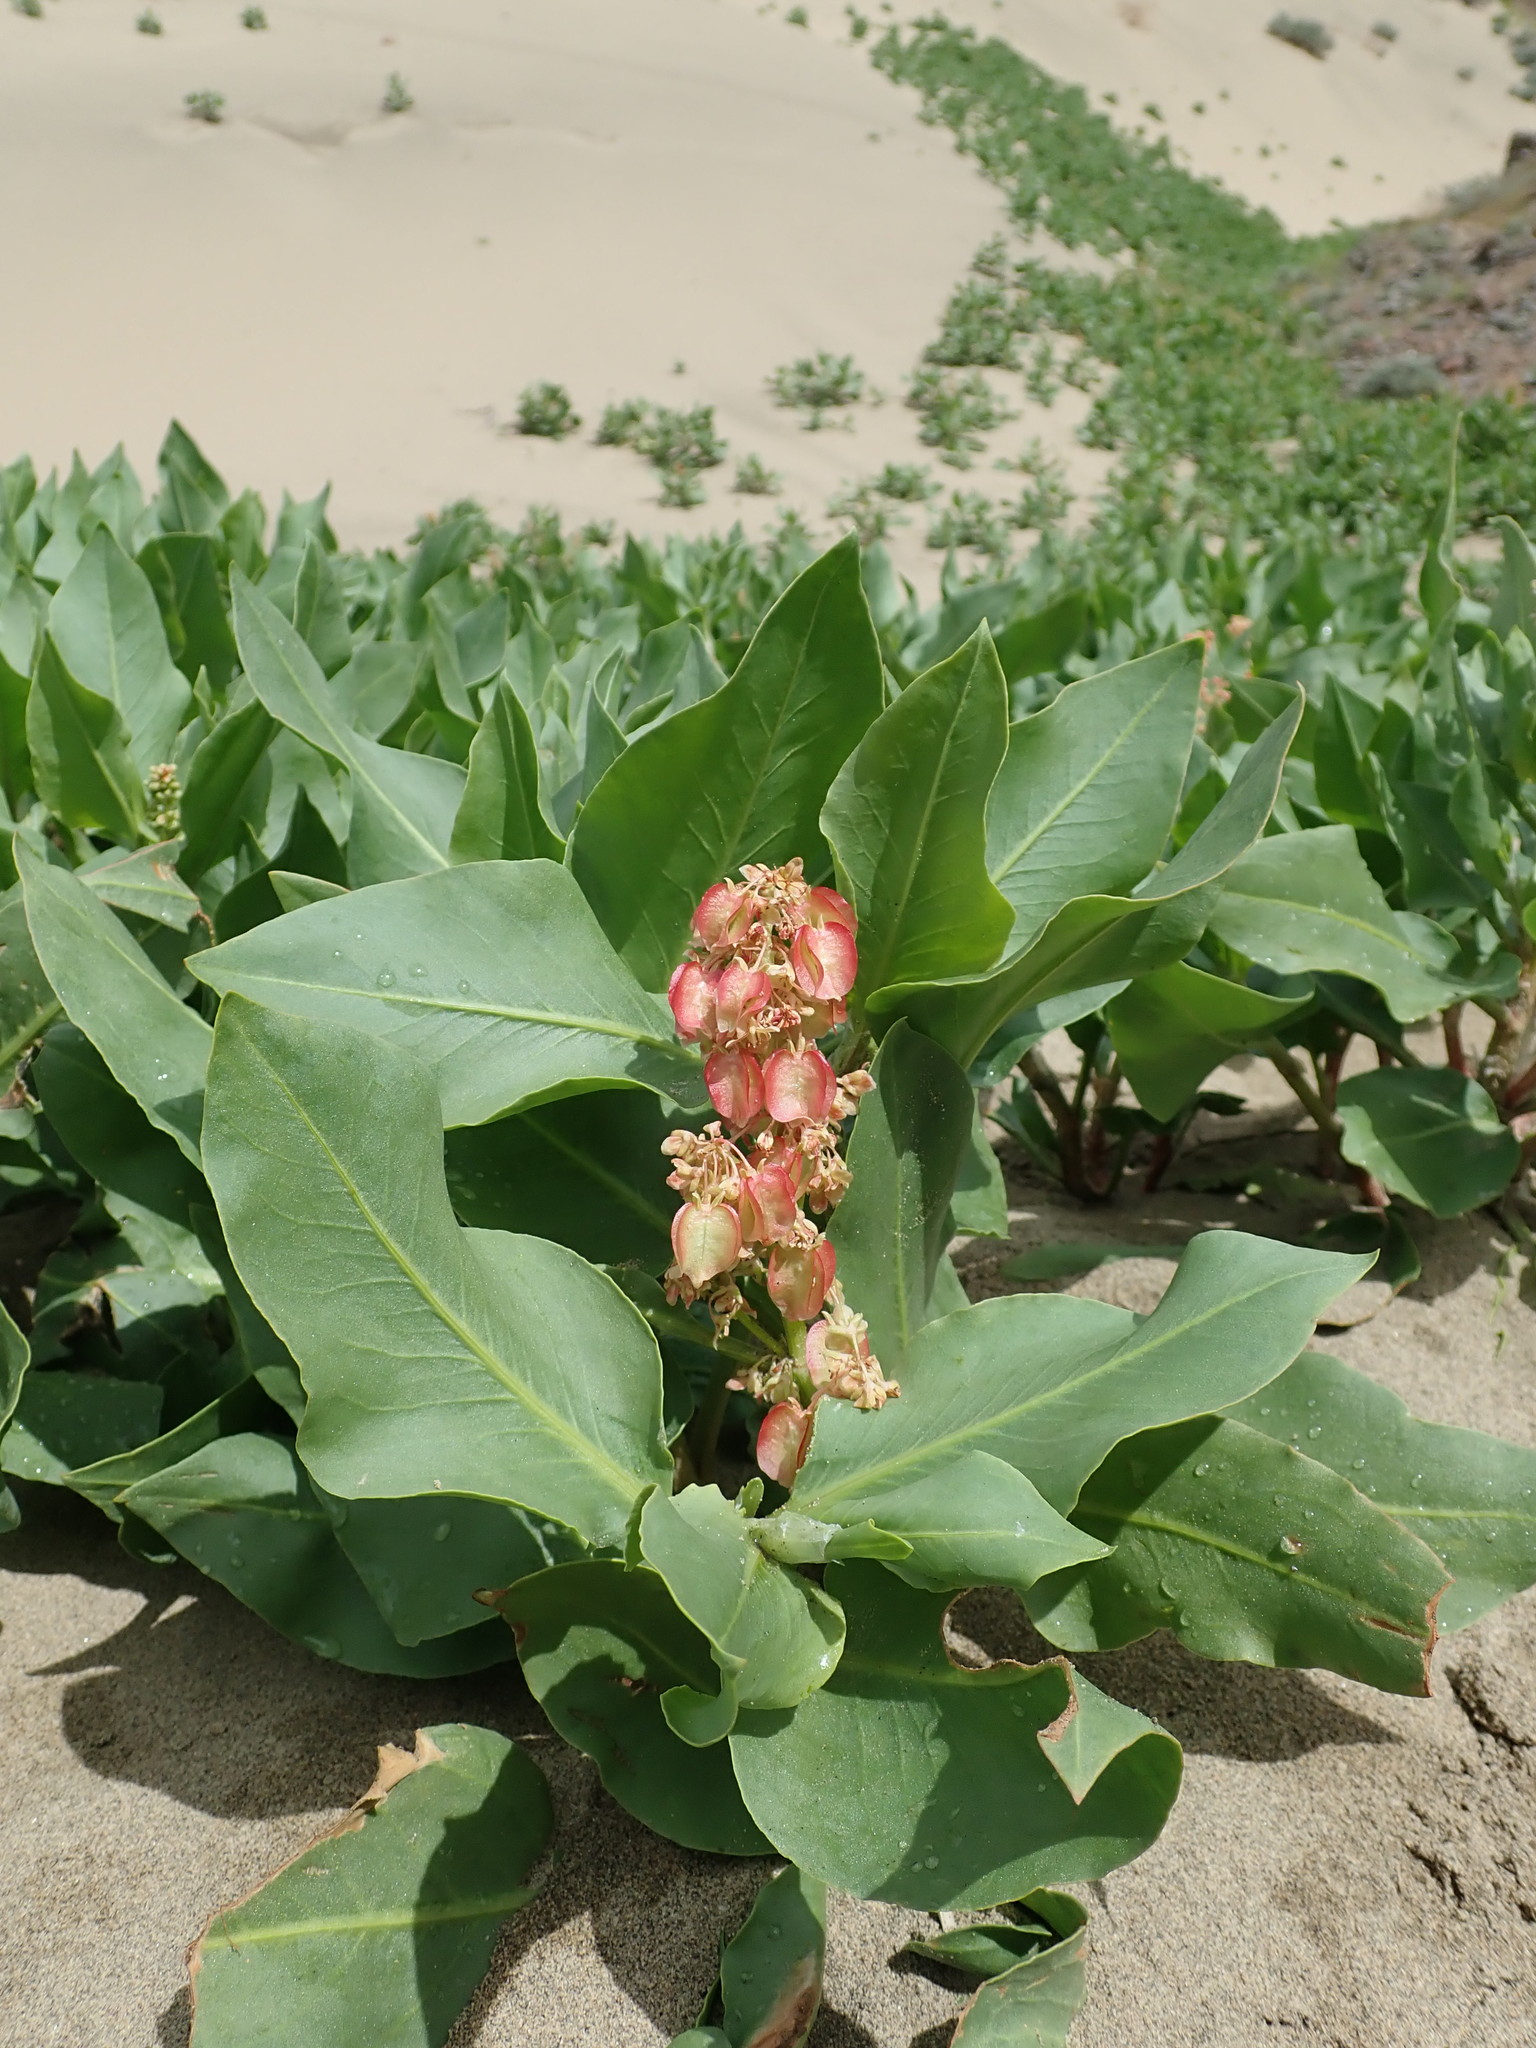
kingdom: Plantae
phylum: Tracheophyta
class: Magnoliopsida
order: Caryophyllales
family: Polygonaceae
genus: Rumex
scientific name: Rumex venosus
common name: Winged dock
